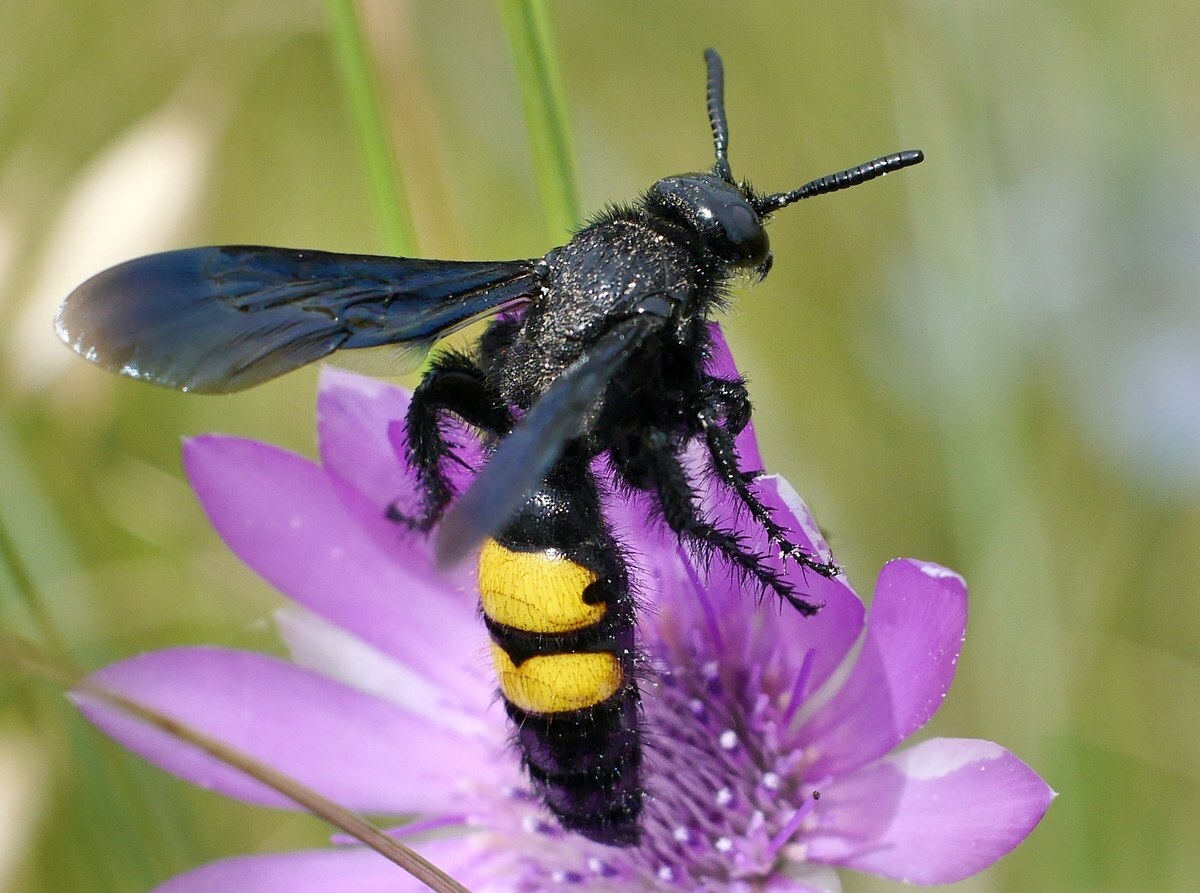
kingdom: Animalia
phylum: Arthropoda
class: Insecta
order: Hymenoptera
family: Scoliidae
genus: Scolia
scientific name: Scolia hirta
